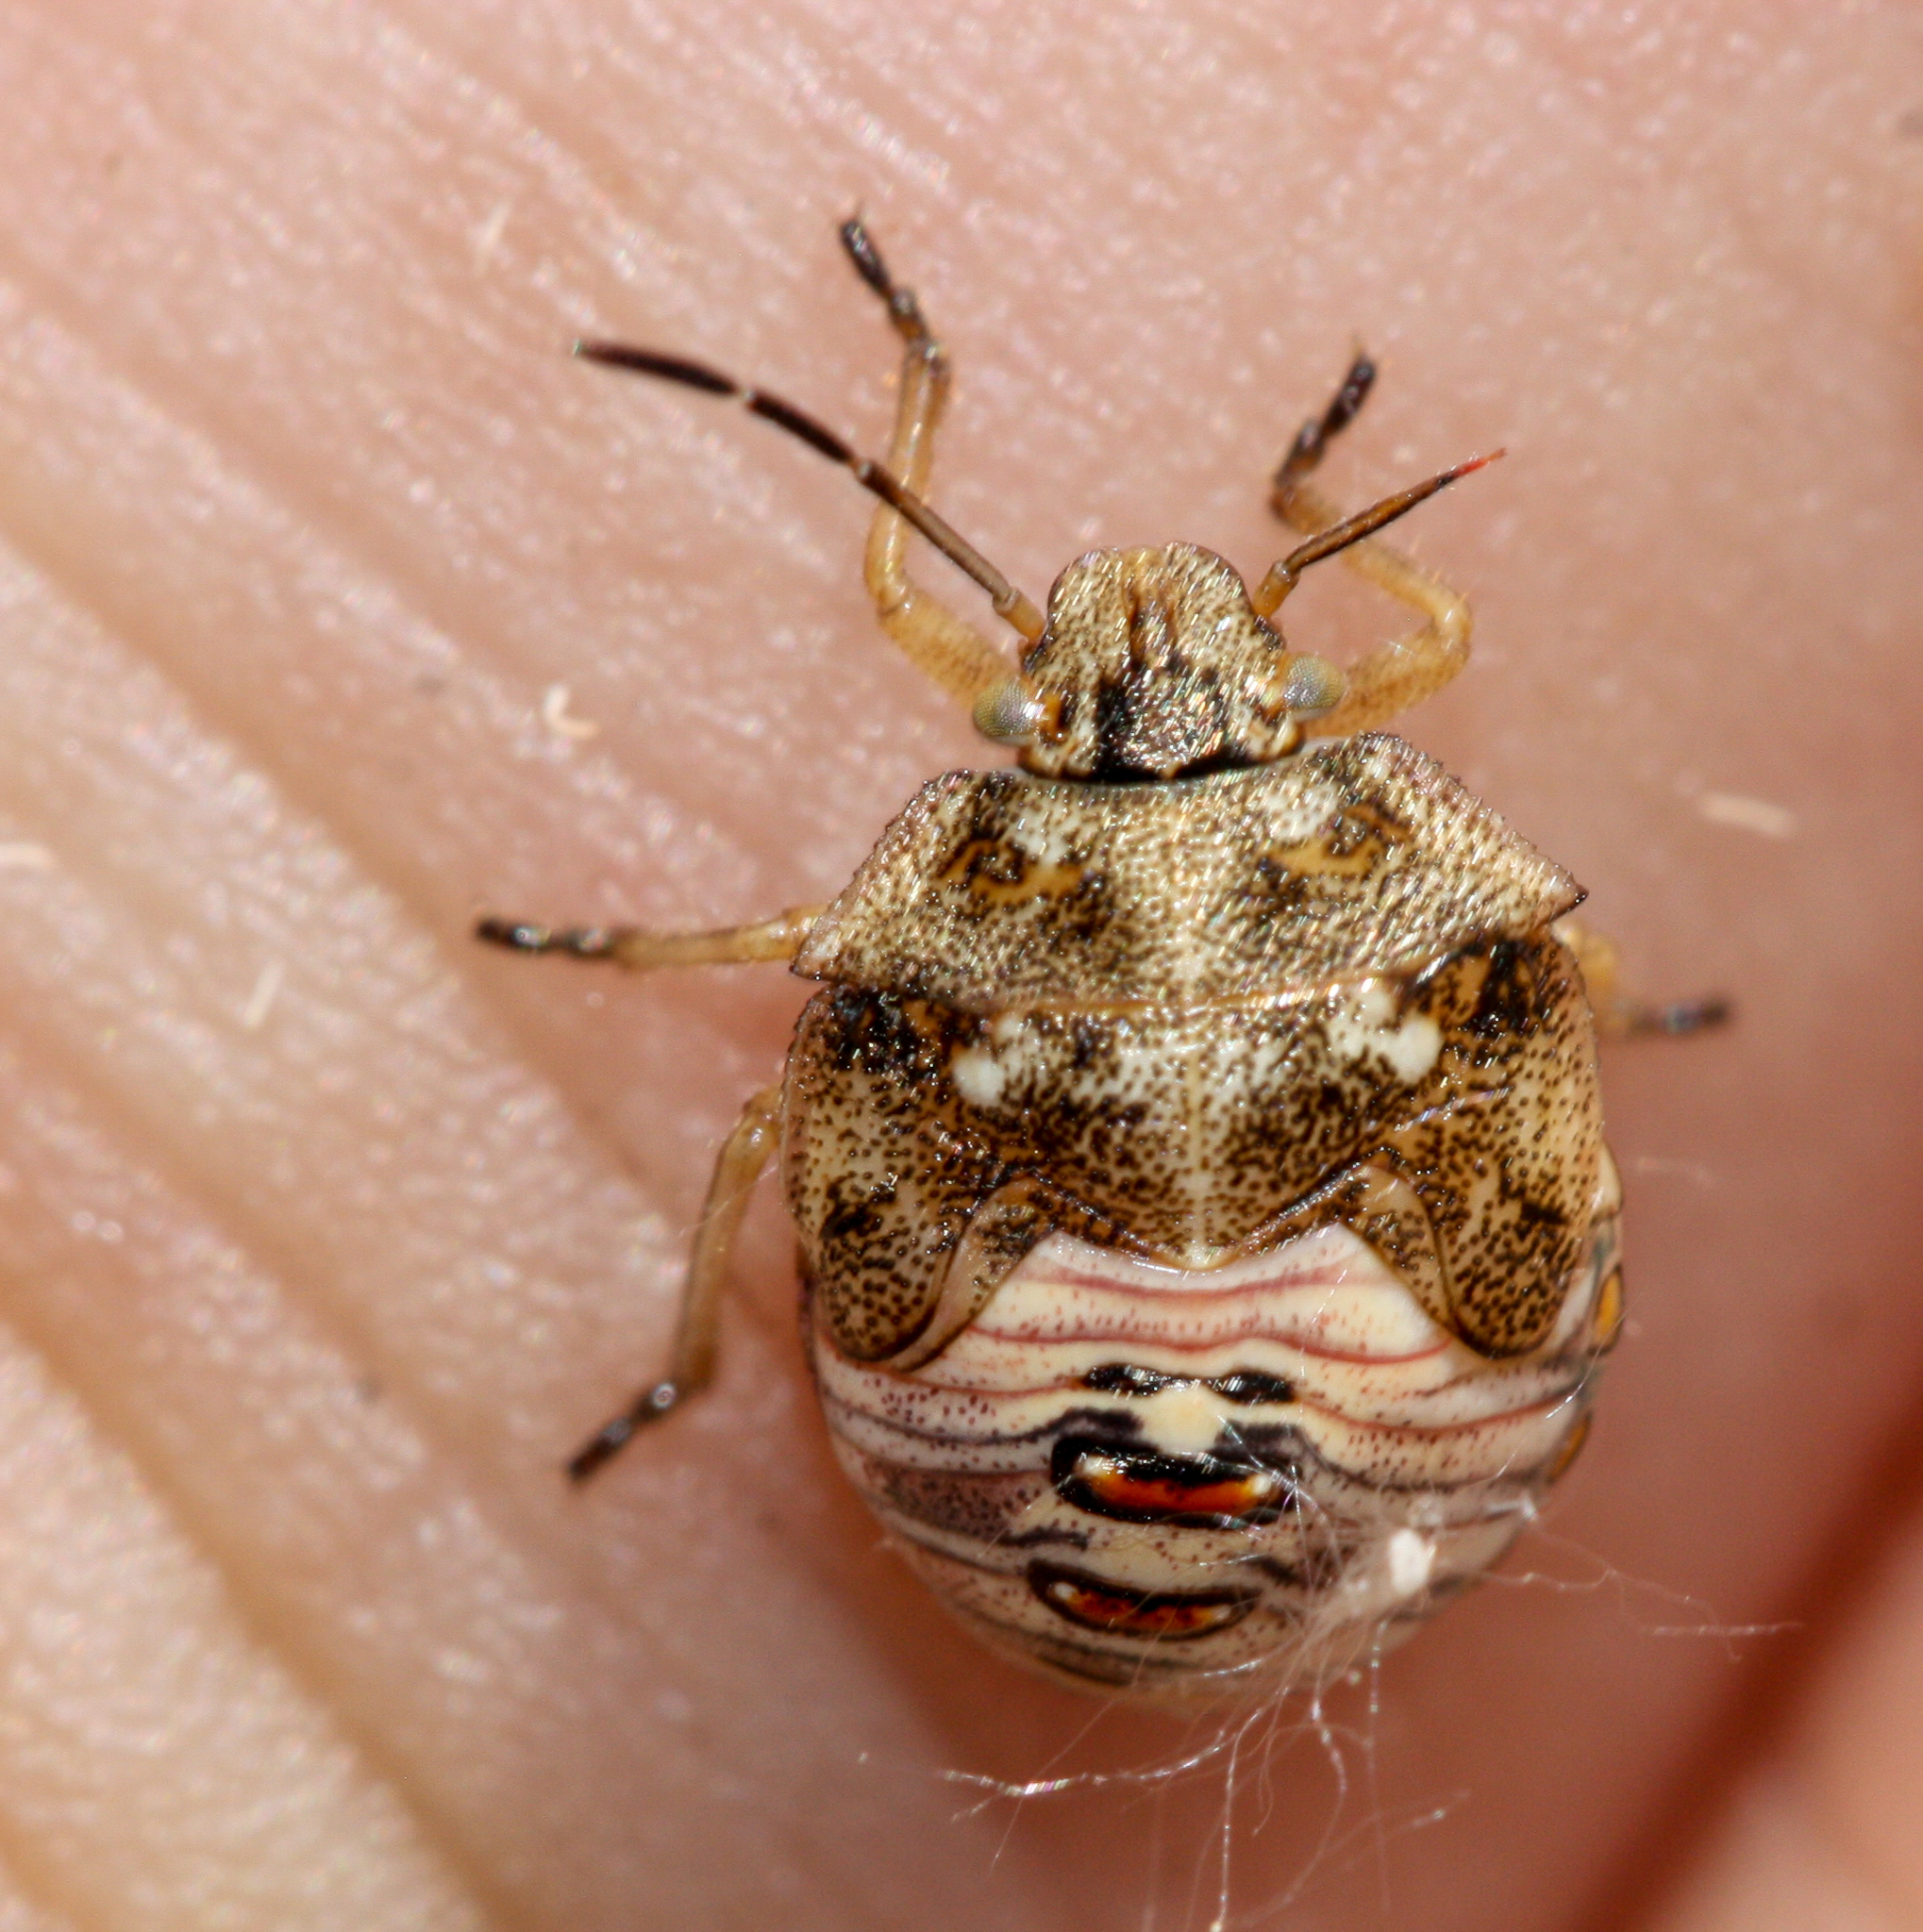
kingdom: Animalia
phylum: Arthropoda
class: Insecta
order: Hemiptera
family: Pentatomidae
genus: Thyanta
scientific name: Thyanta accerra
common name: Stink bug
